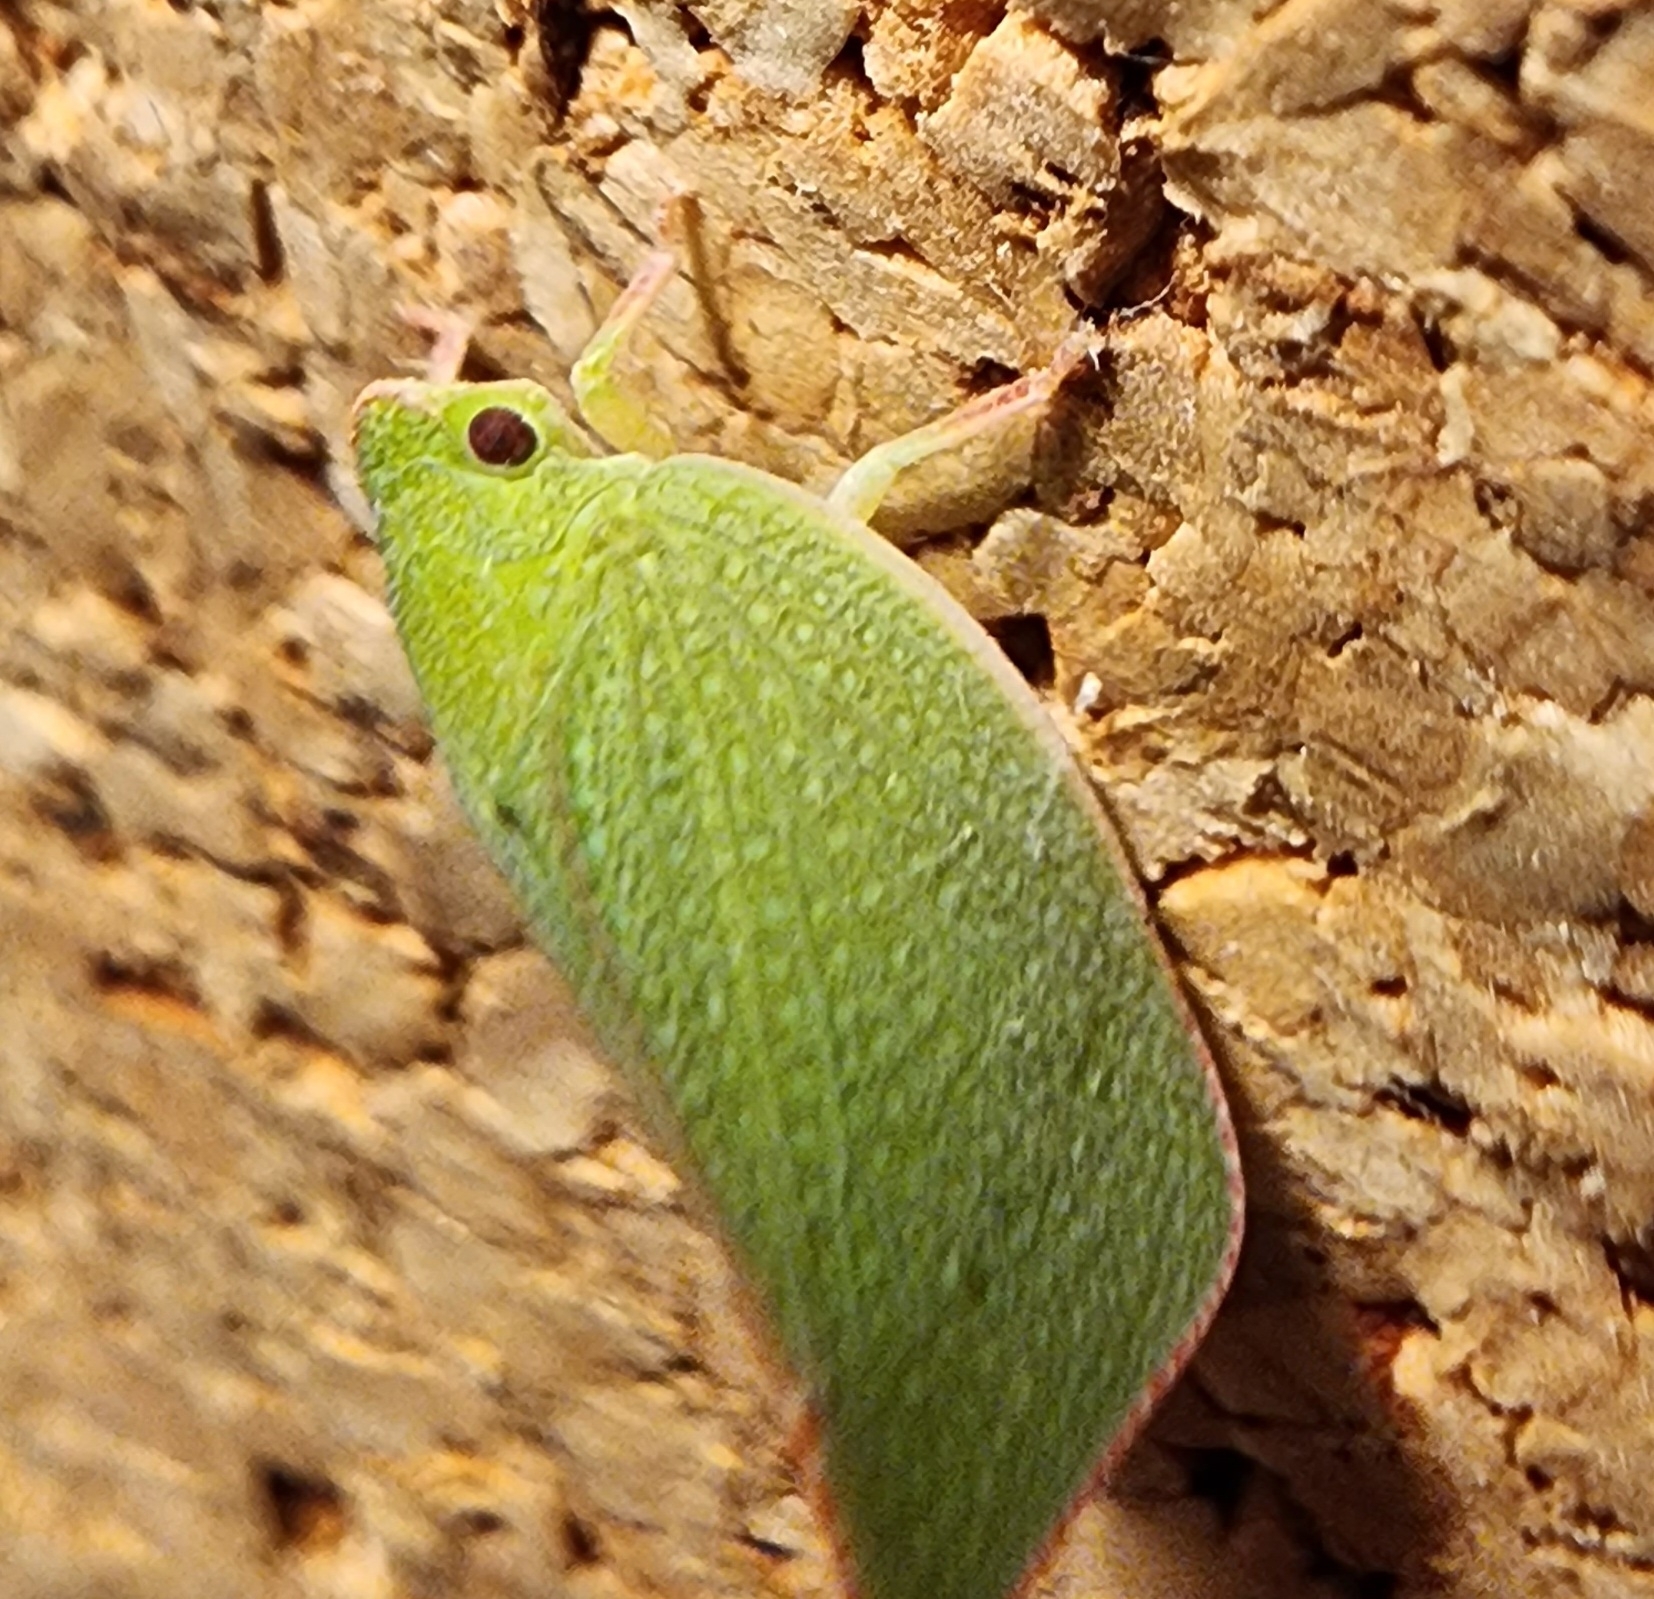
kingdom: Animalia
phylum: Arthropoda
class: Insecta
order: Hemiptera
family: Flatidae
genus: Siphanta
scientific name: Siphanta acuta
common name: Torpedo bug
